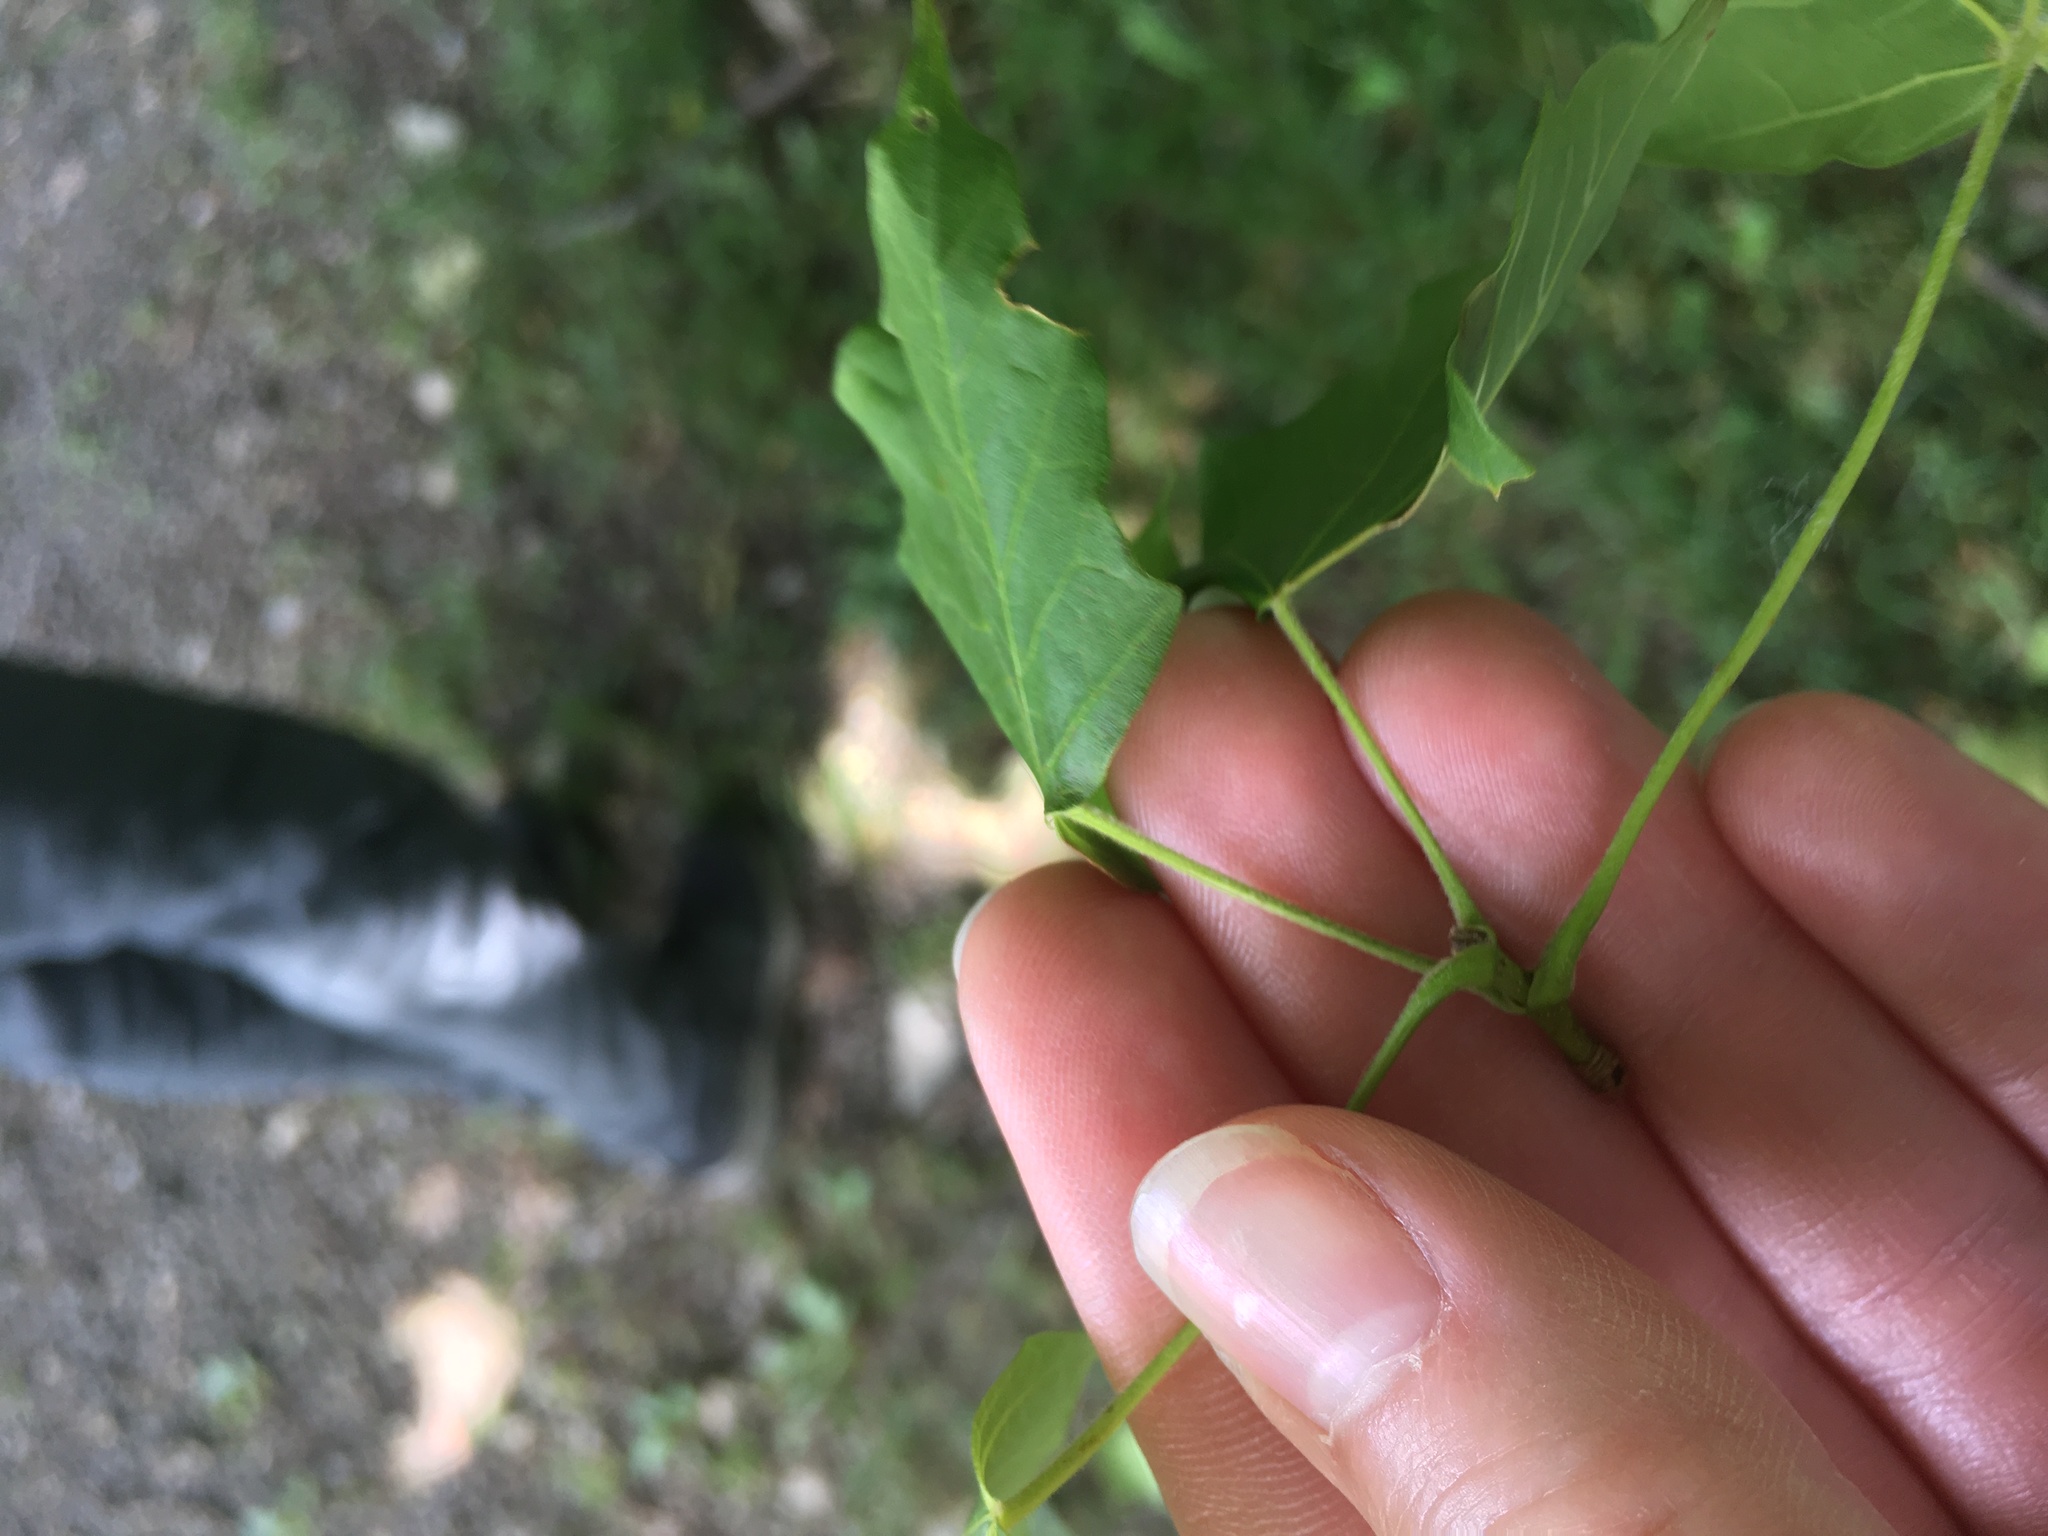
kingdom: Plantae
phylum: Tracheophyta
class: Magnoliopsida
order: Sapindales
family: Sapindaceae
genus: Acer
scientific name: Acer nigrum
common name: Black maple
